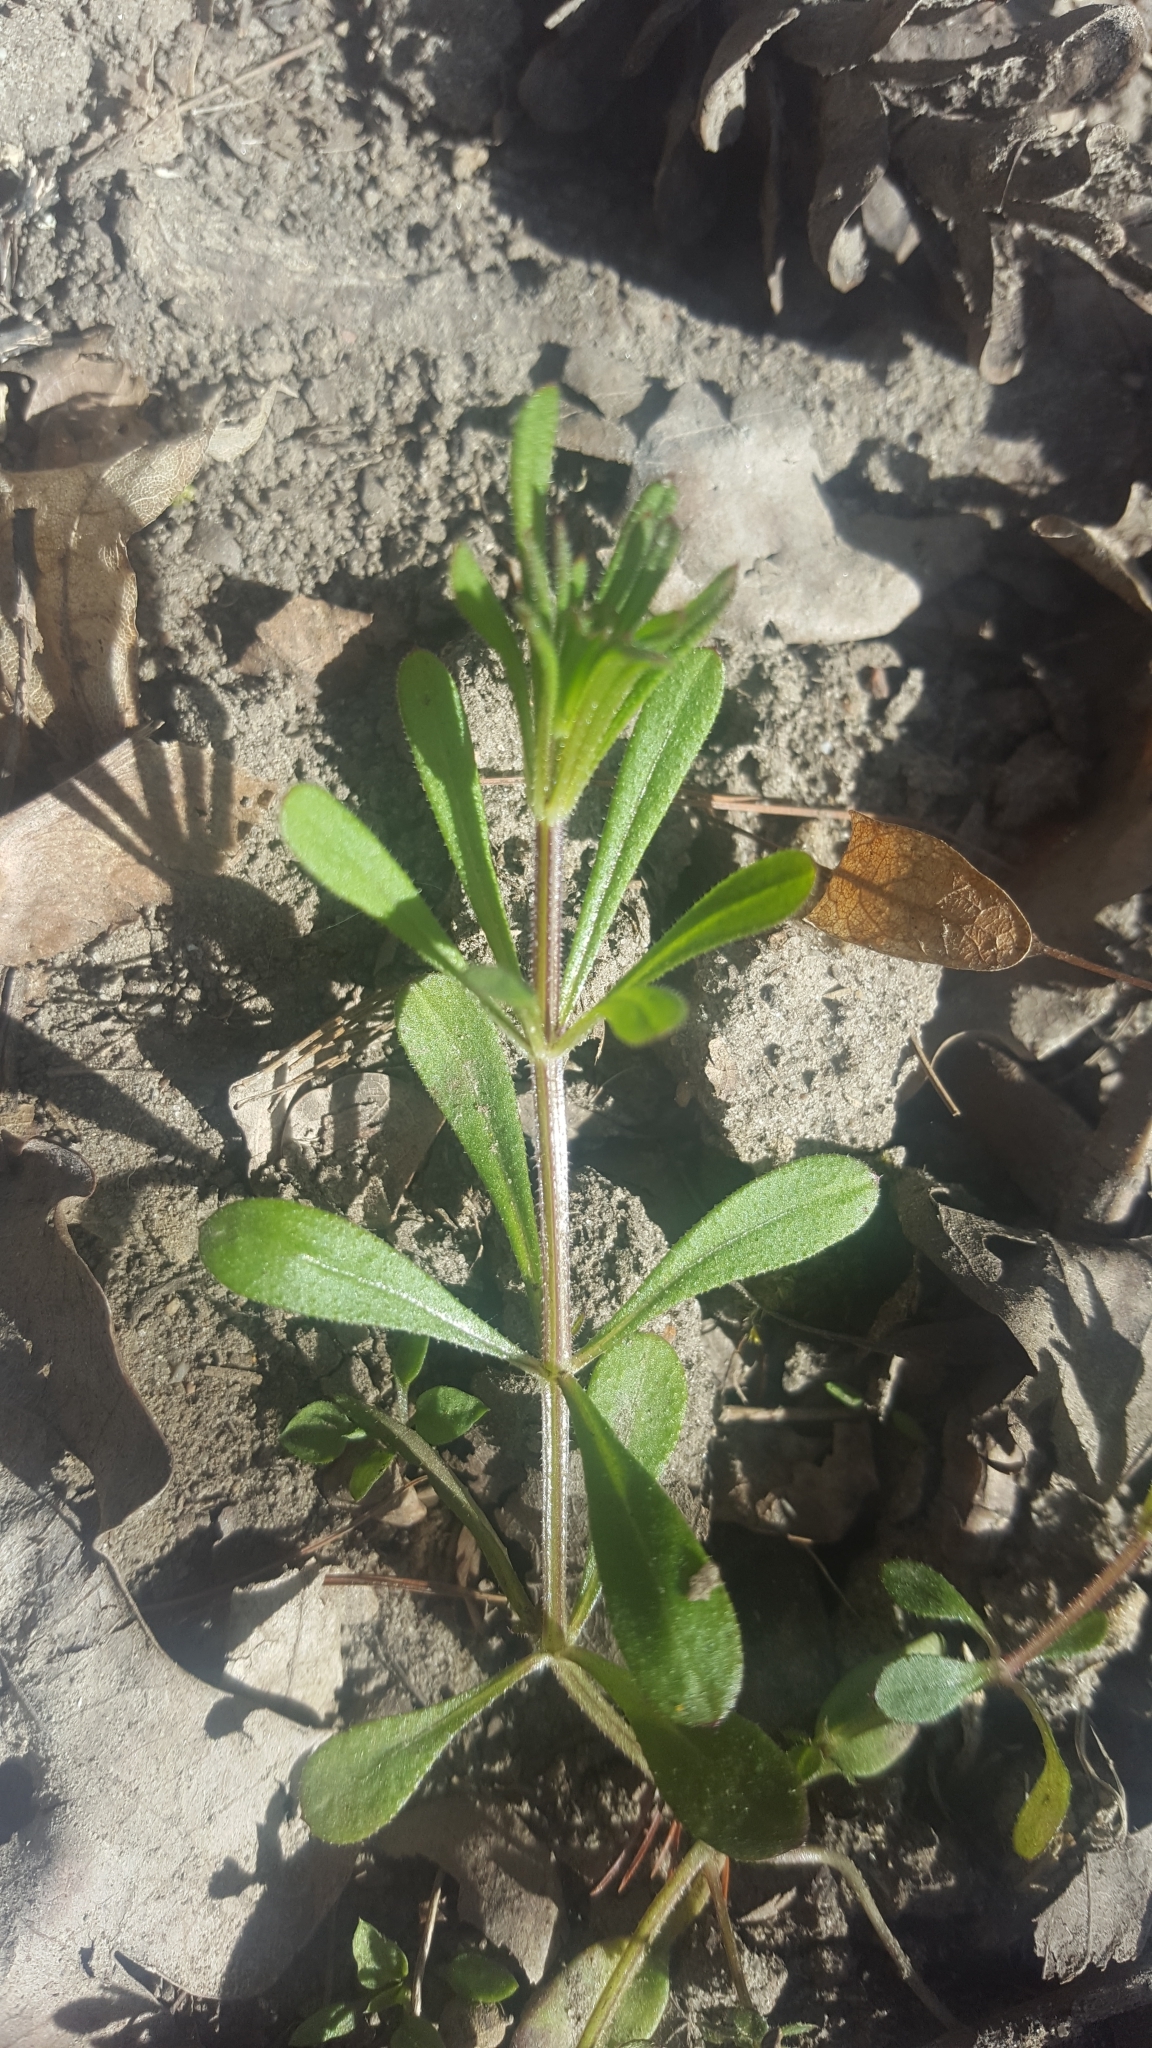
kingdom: Plantae
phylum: Tracheophyta
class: Magnoliopsida
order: Gentianales
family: Rubiaceae
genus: Galium
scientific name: Galium aparine
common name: Cleavers
